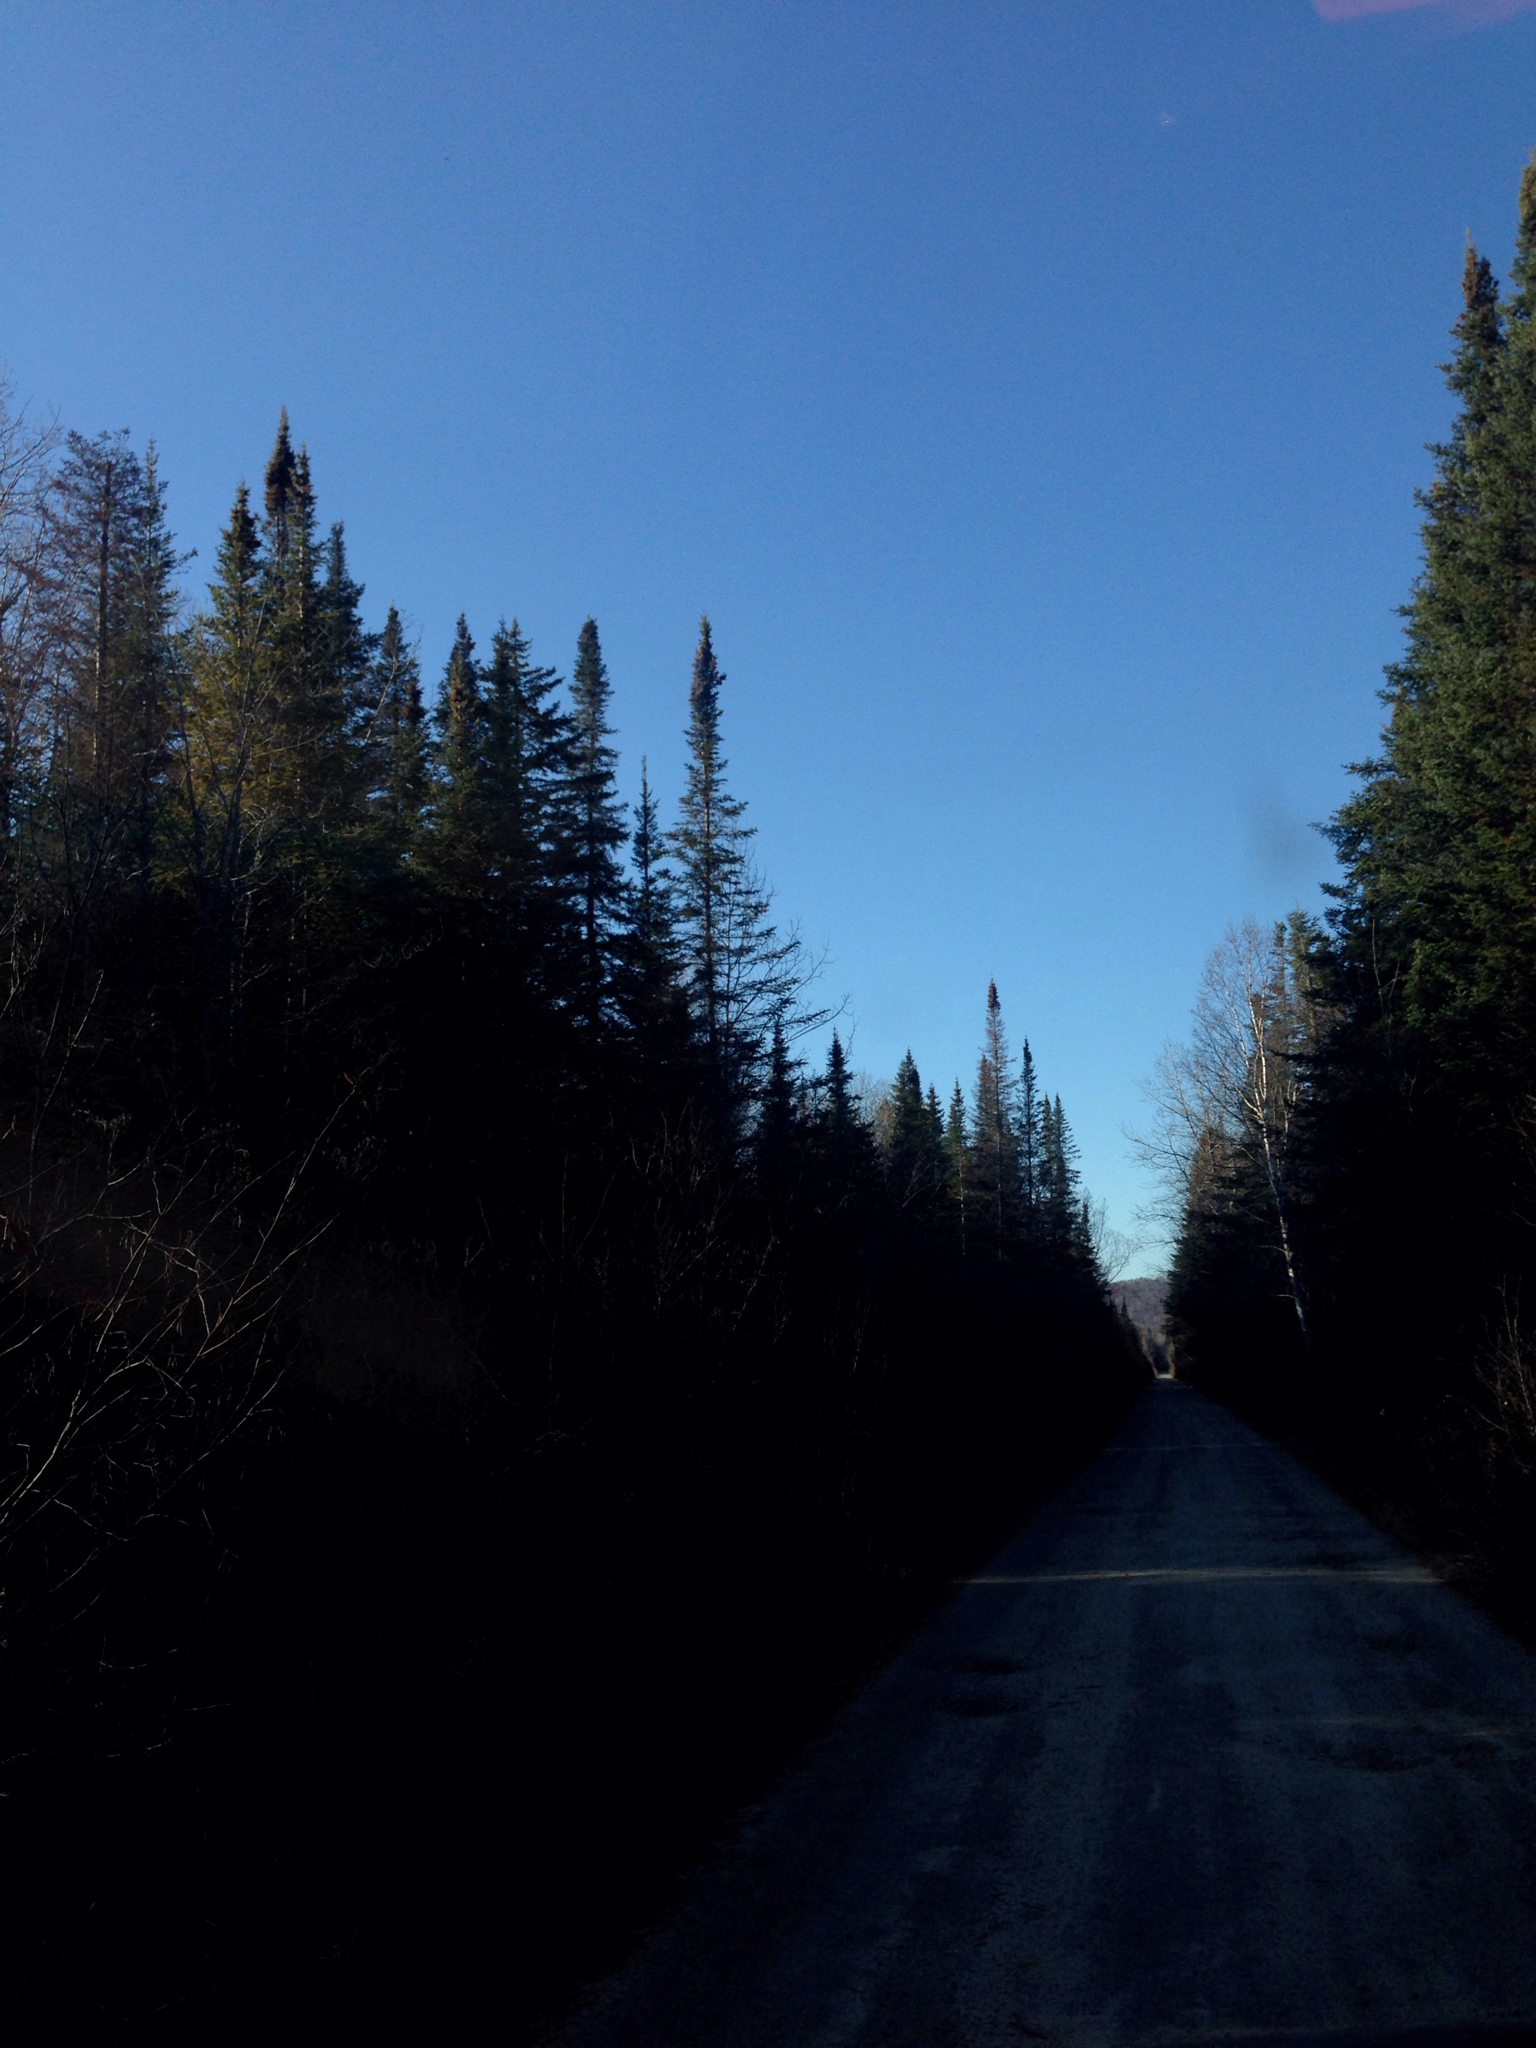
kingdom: Plantae
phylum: Tracheophyta
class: Pinopsida
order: Pinales
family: Pinaceae
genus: Abies
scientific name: Abies balsamea
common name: Balsam fir
